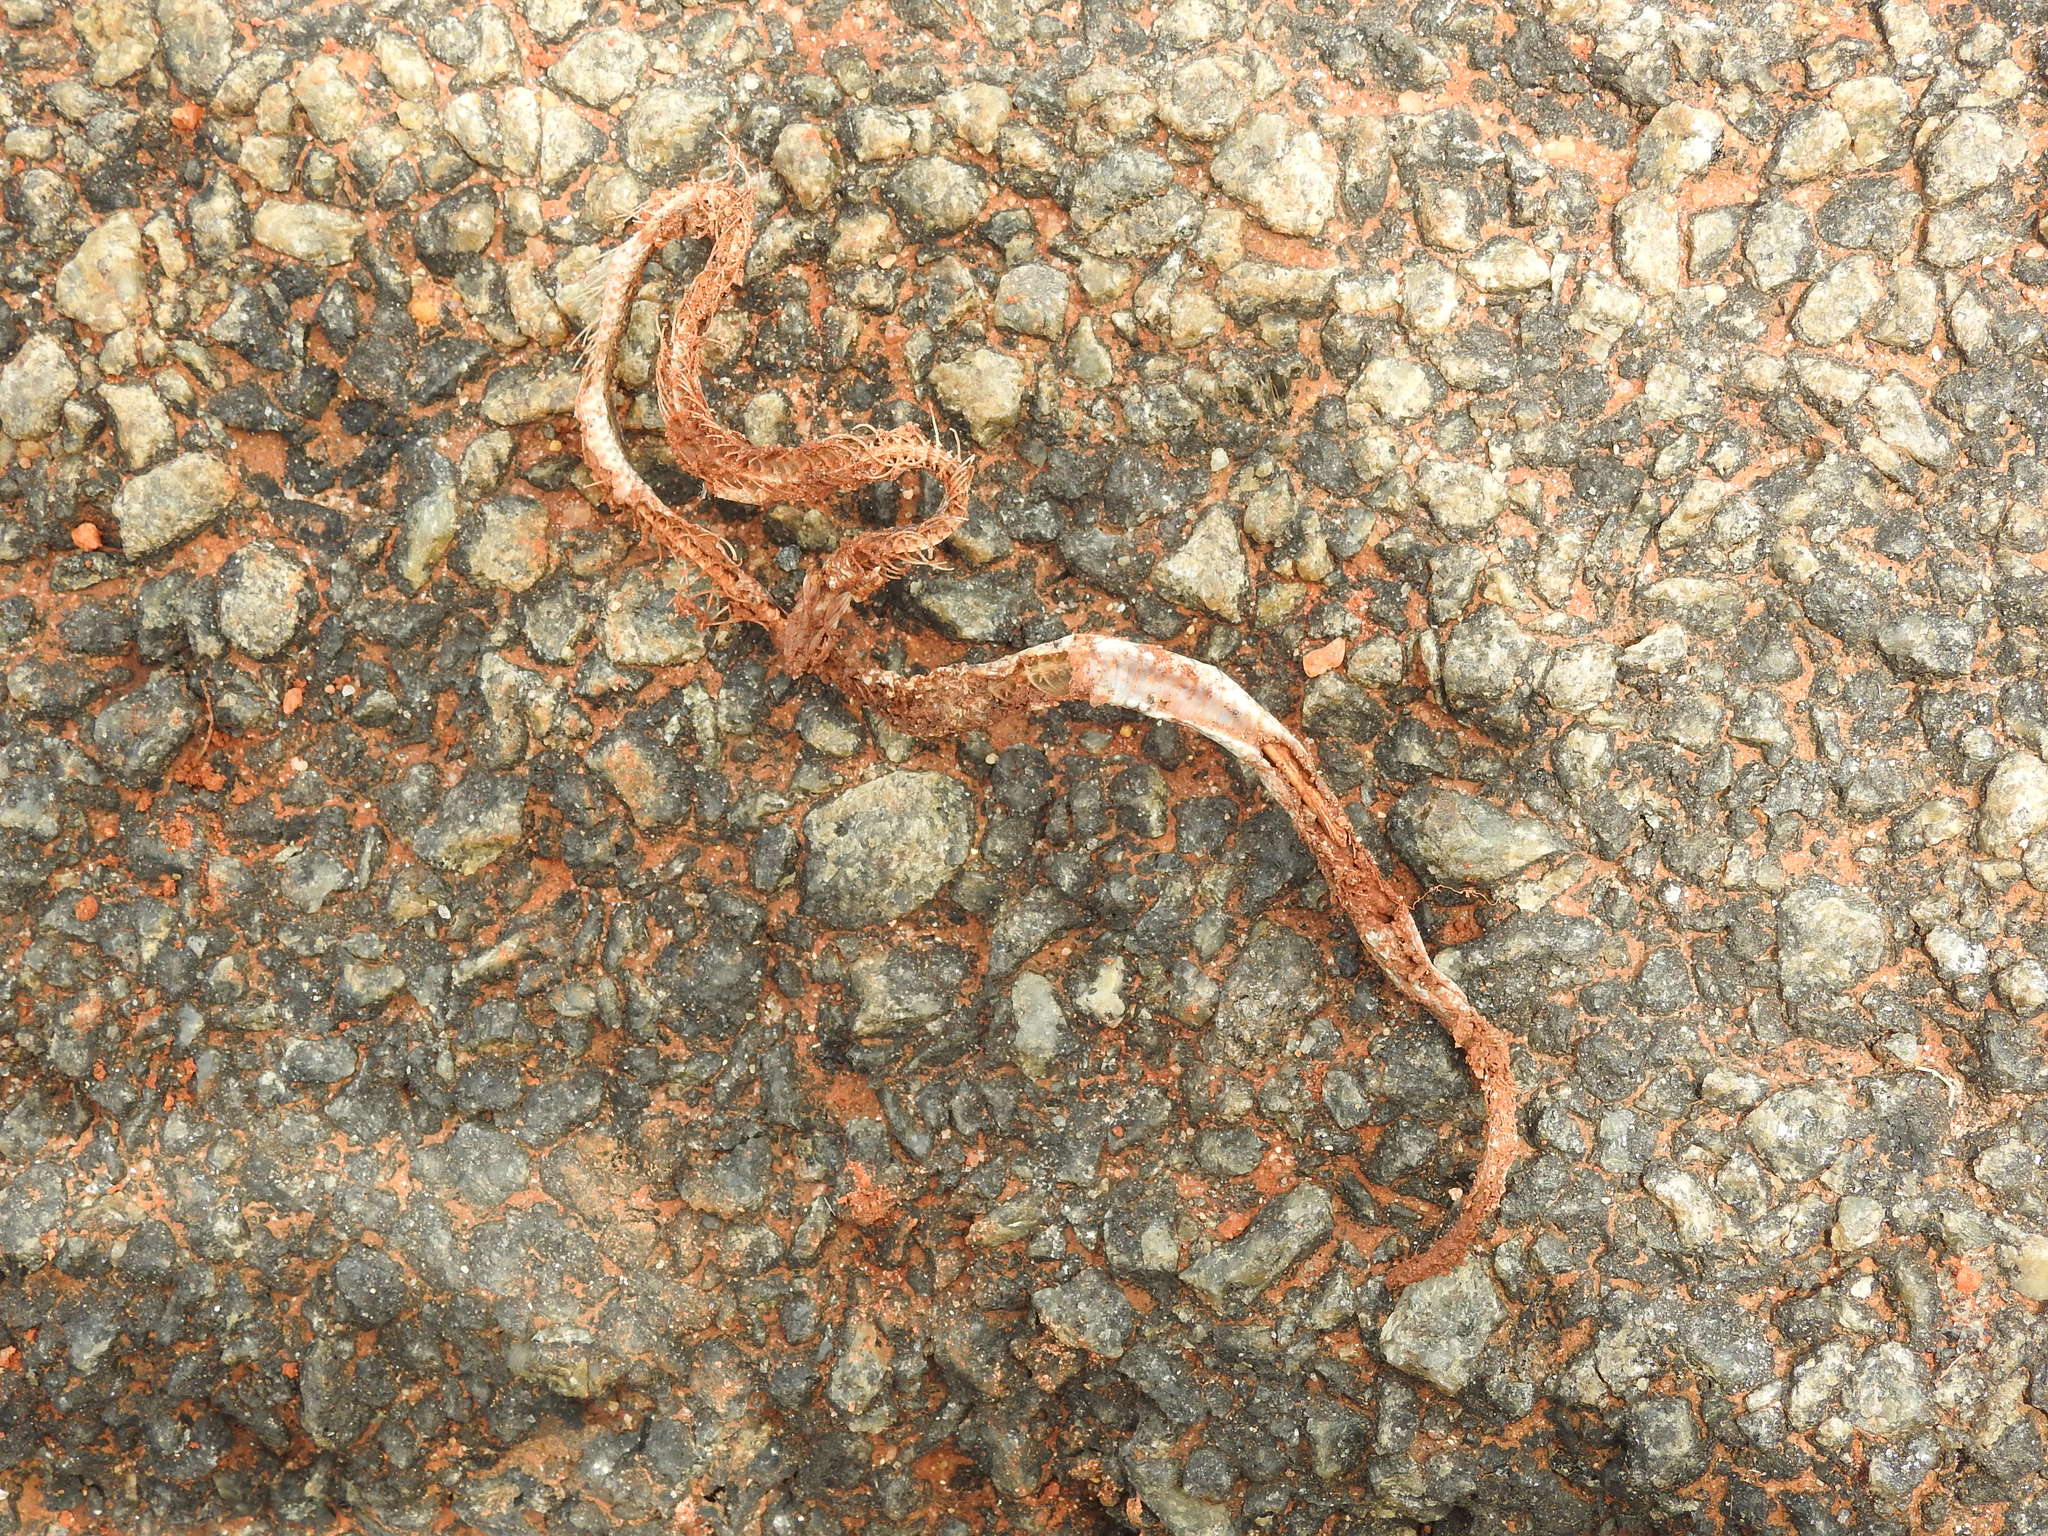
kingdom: Animalia
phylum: Chordata
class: Squamata
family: Colubridae
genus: Oligodon
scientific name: Oligodon taeniolatus
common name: Loos snake
